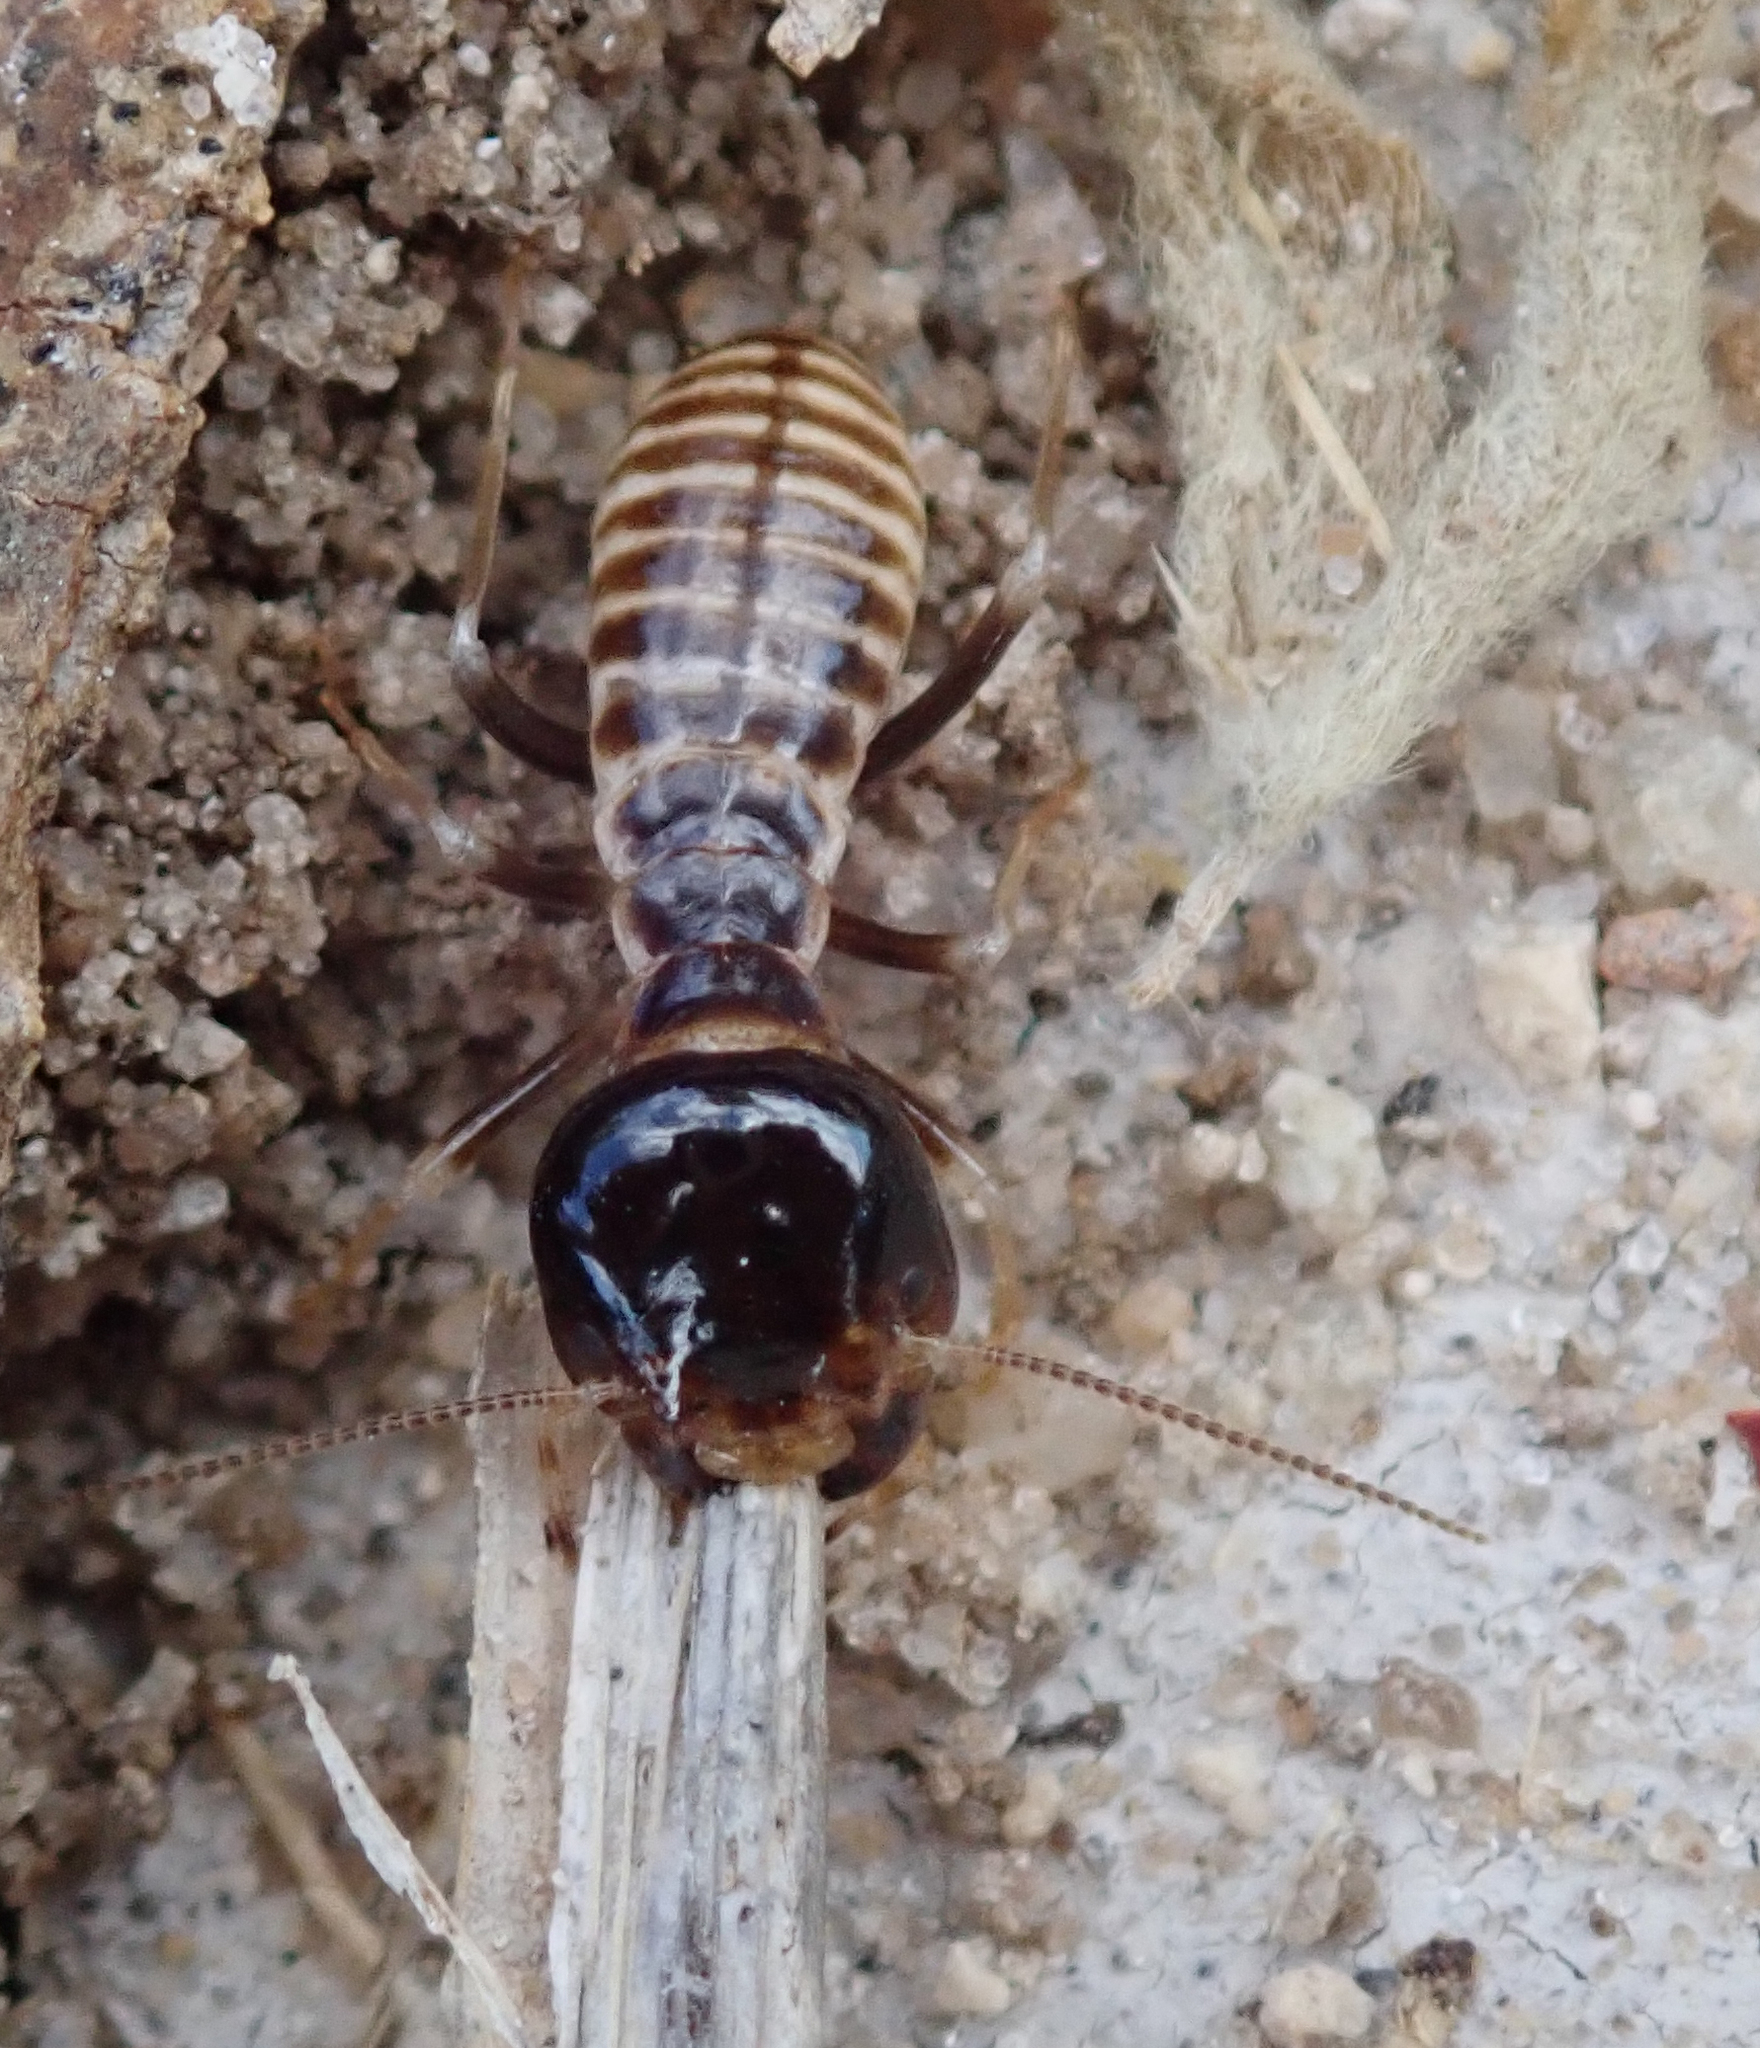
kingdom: Animalia
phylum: Arthropoda
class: Insecta
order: Blattodea
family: Hodotermitidae
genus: Hodotermes
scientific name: Hodotermes mossambicus
